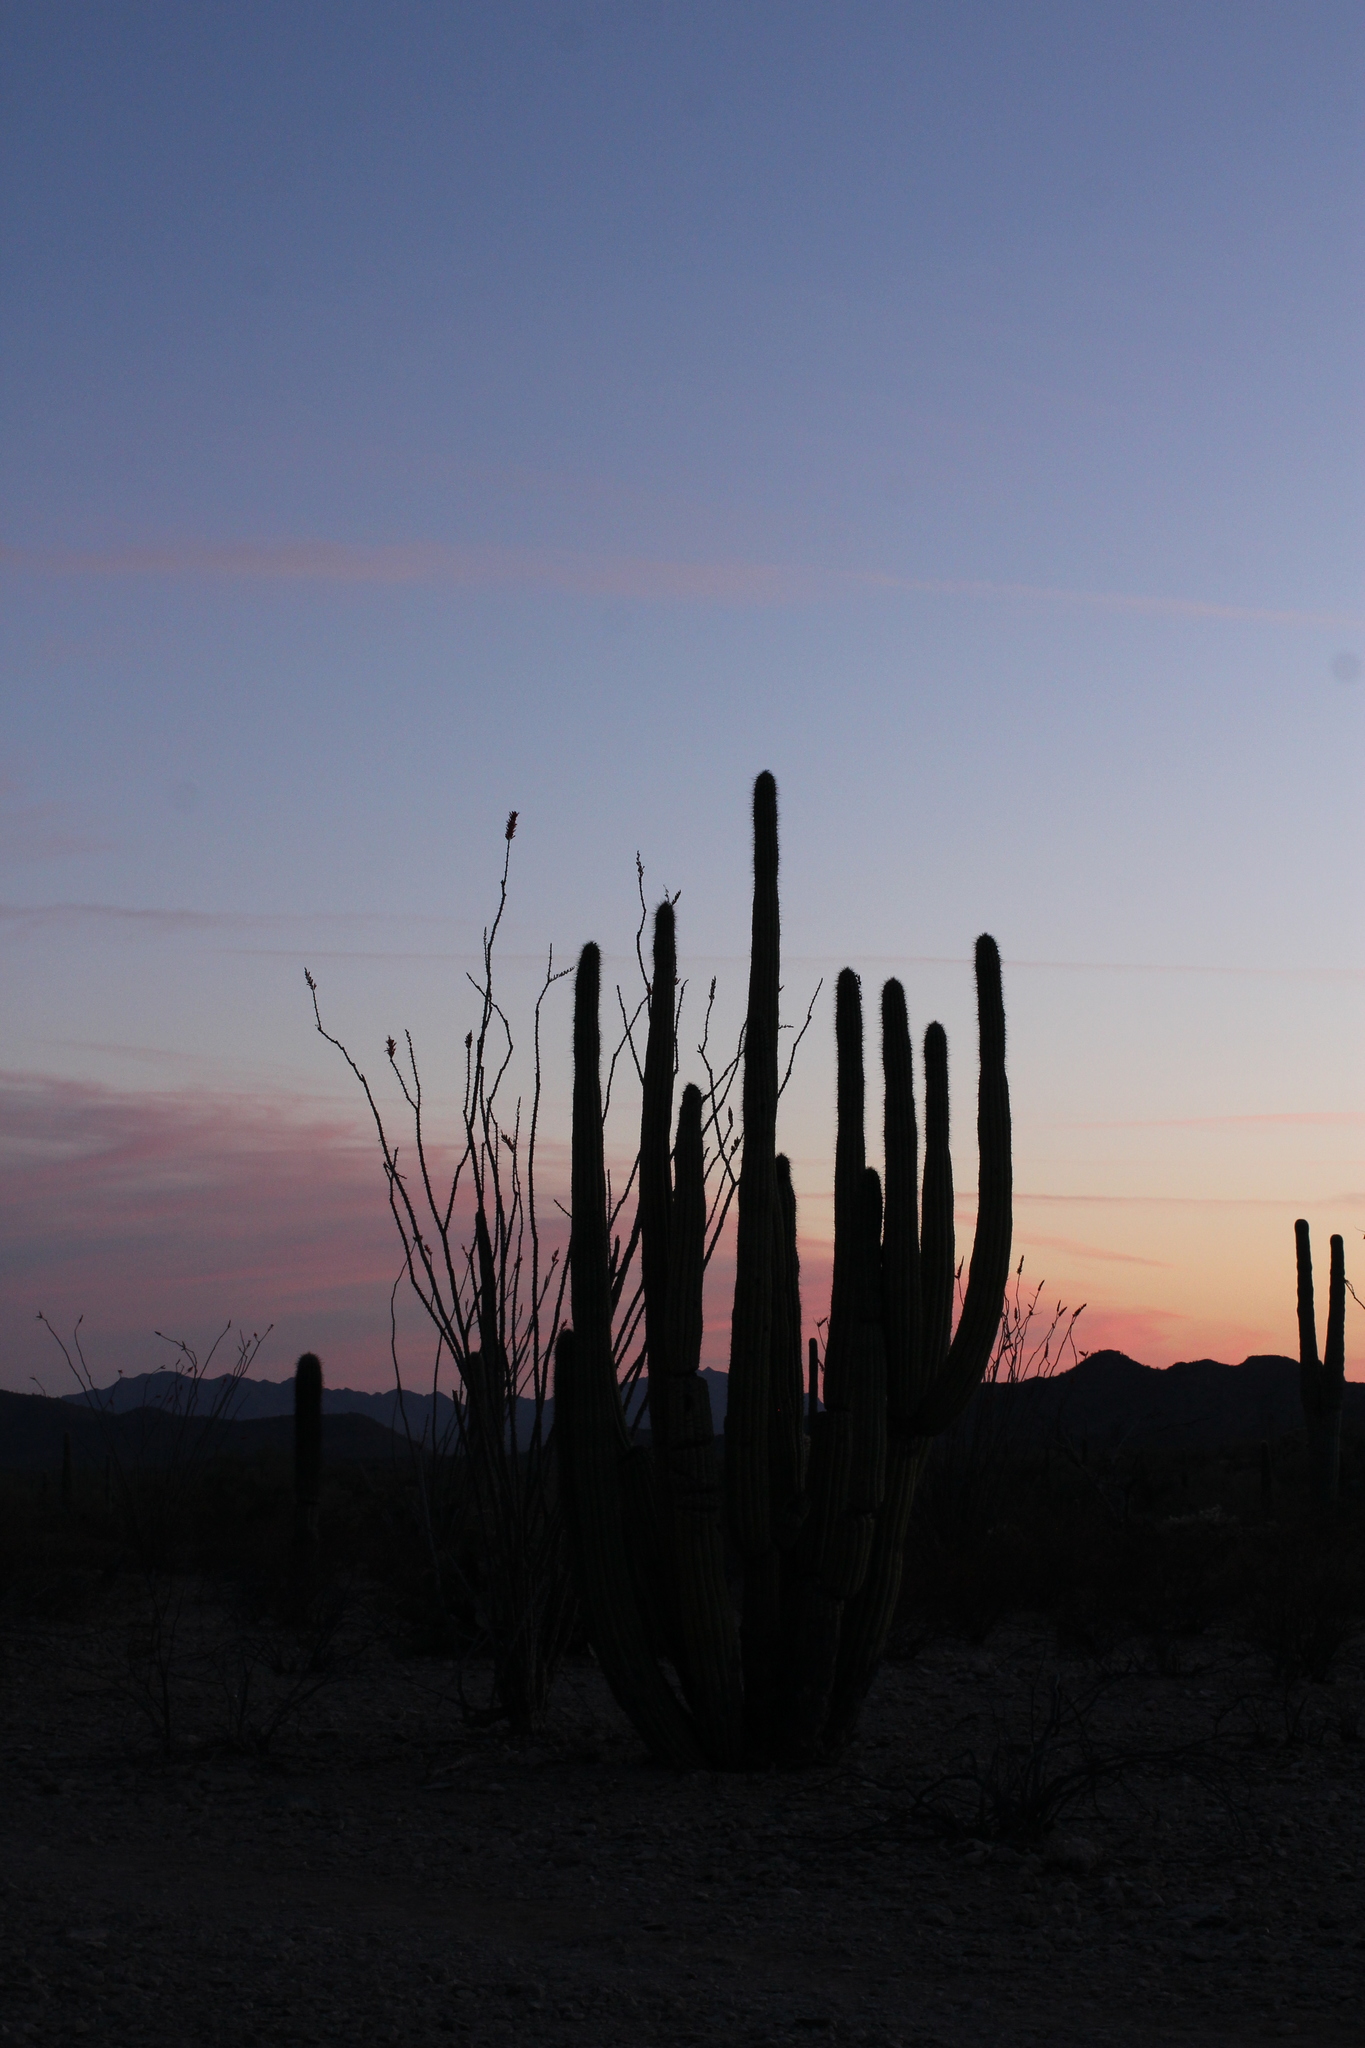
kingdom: Plantae
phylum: Tracheophyta
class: Magnoliopsida
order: Caryophyllales
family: Cactaceae
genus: Stenocereus
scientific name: Stenocereus thurberi
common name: Organ pipe cactus
